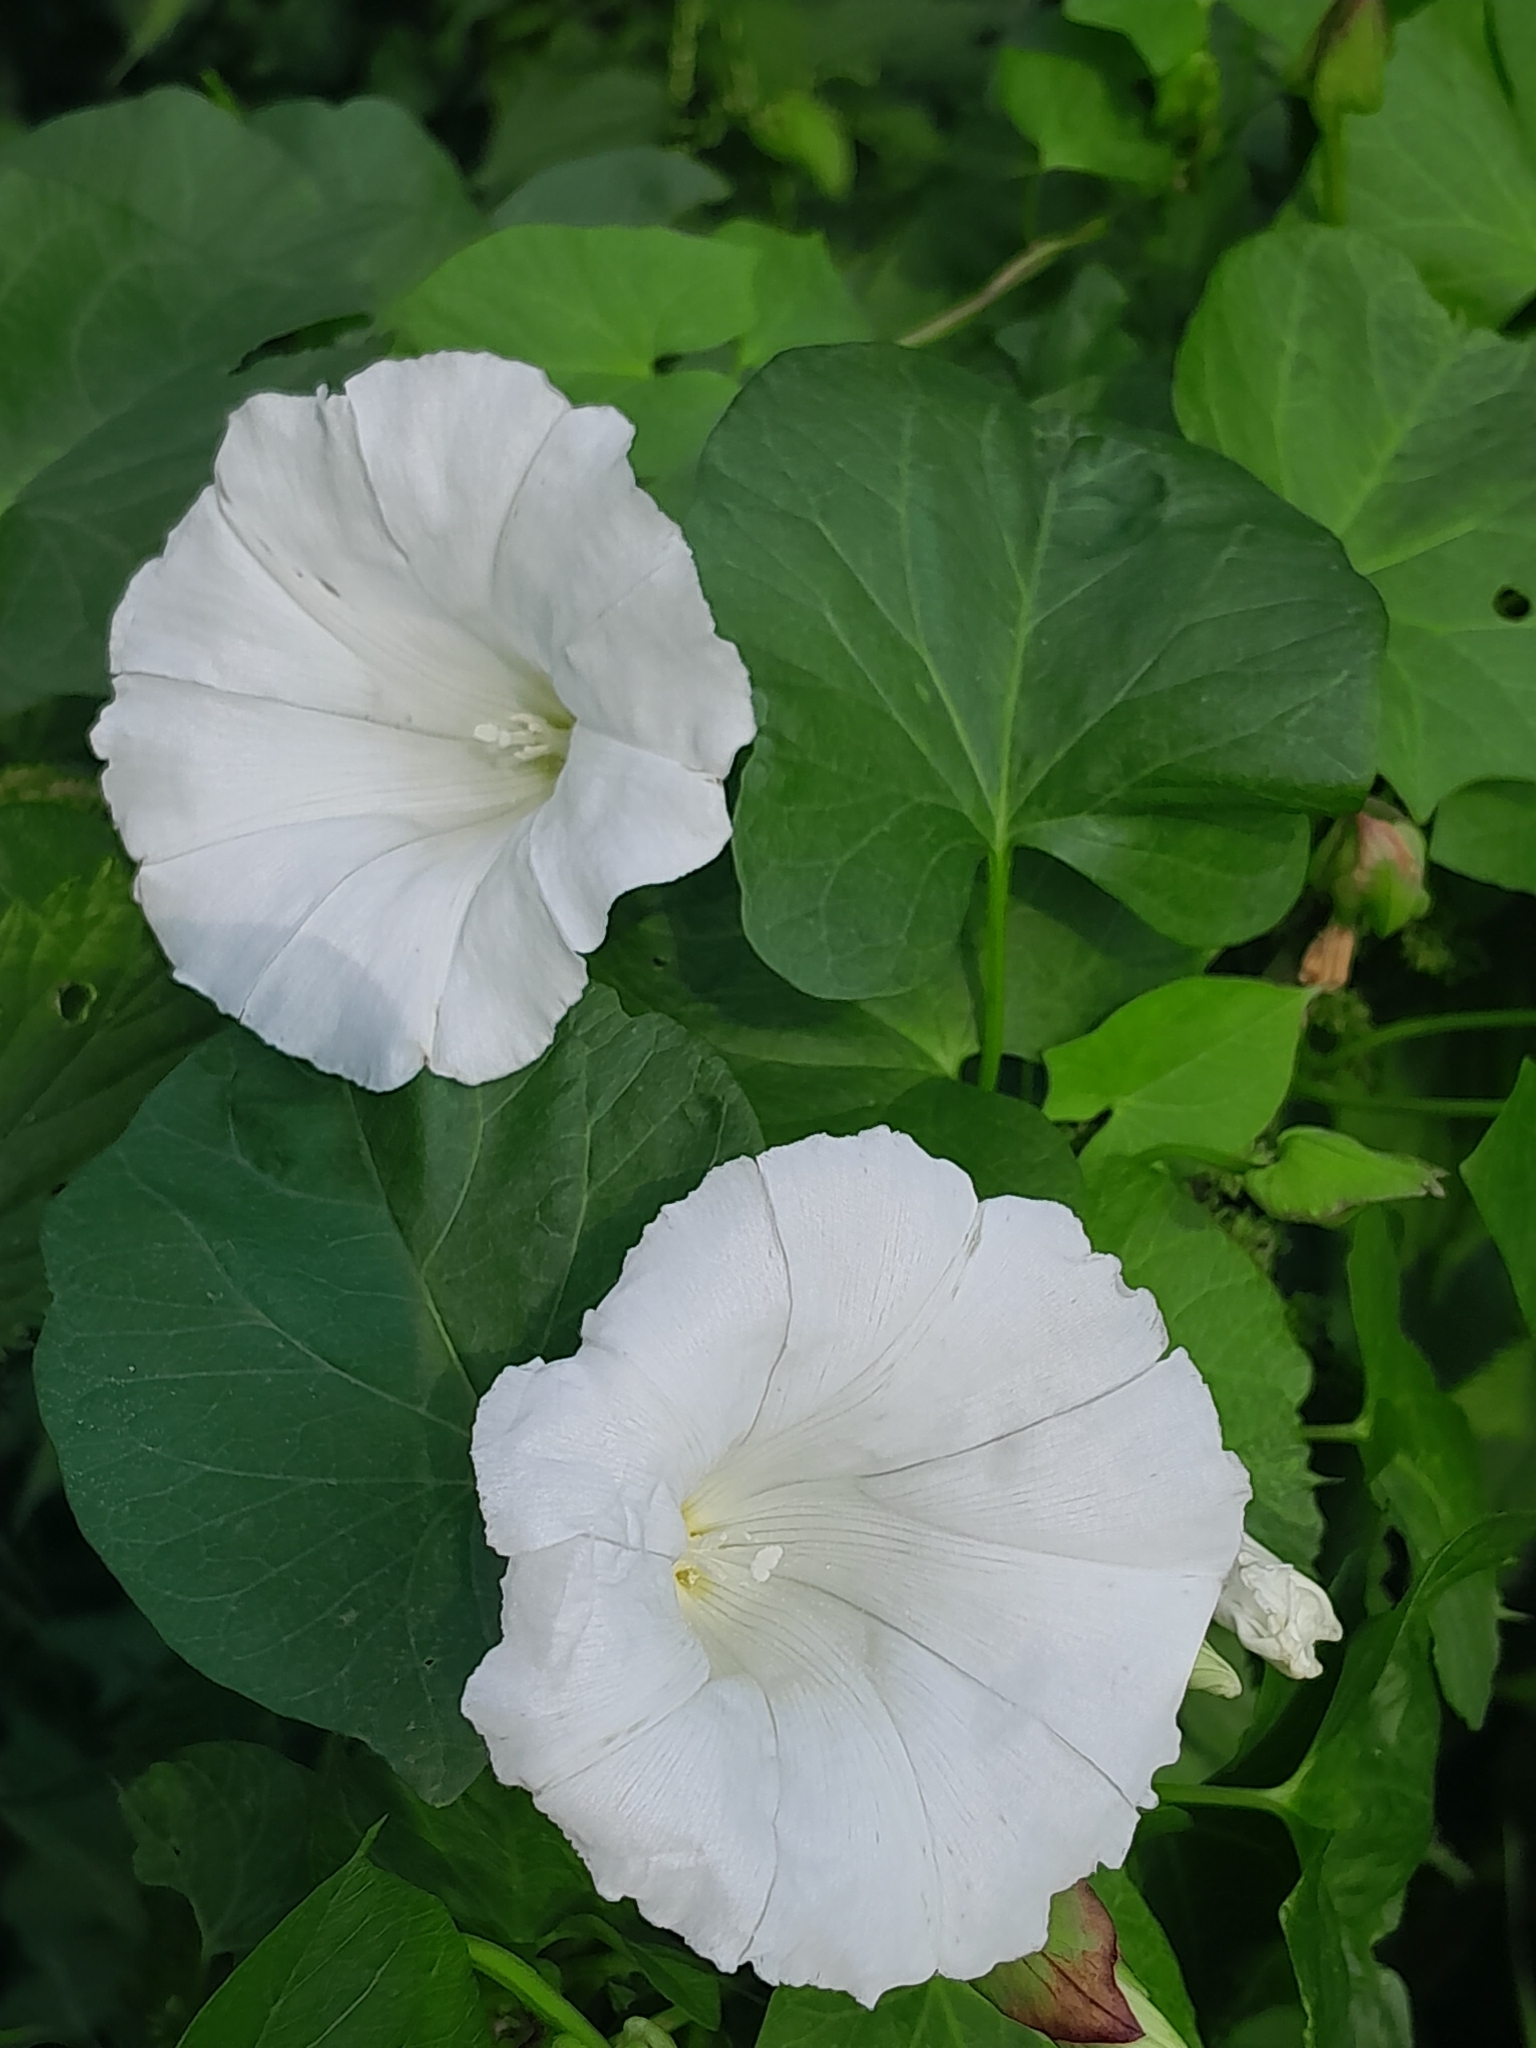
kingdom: Plantae
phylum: Tracheophyta
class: Magnoliopsida
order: Solanales
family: Convolvulaceae
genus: Calystegia
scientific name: Calystegia sepium
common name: Hedge bindweed
